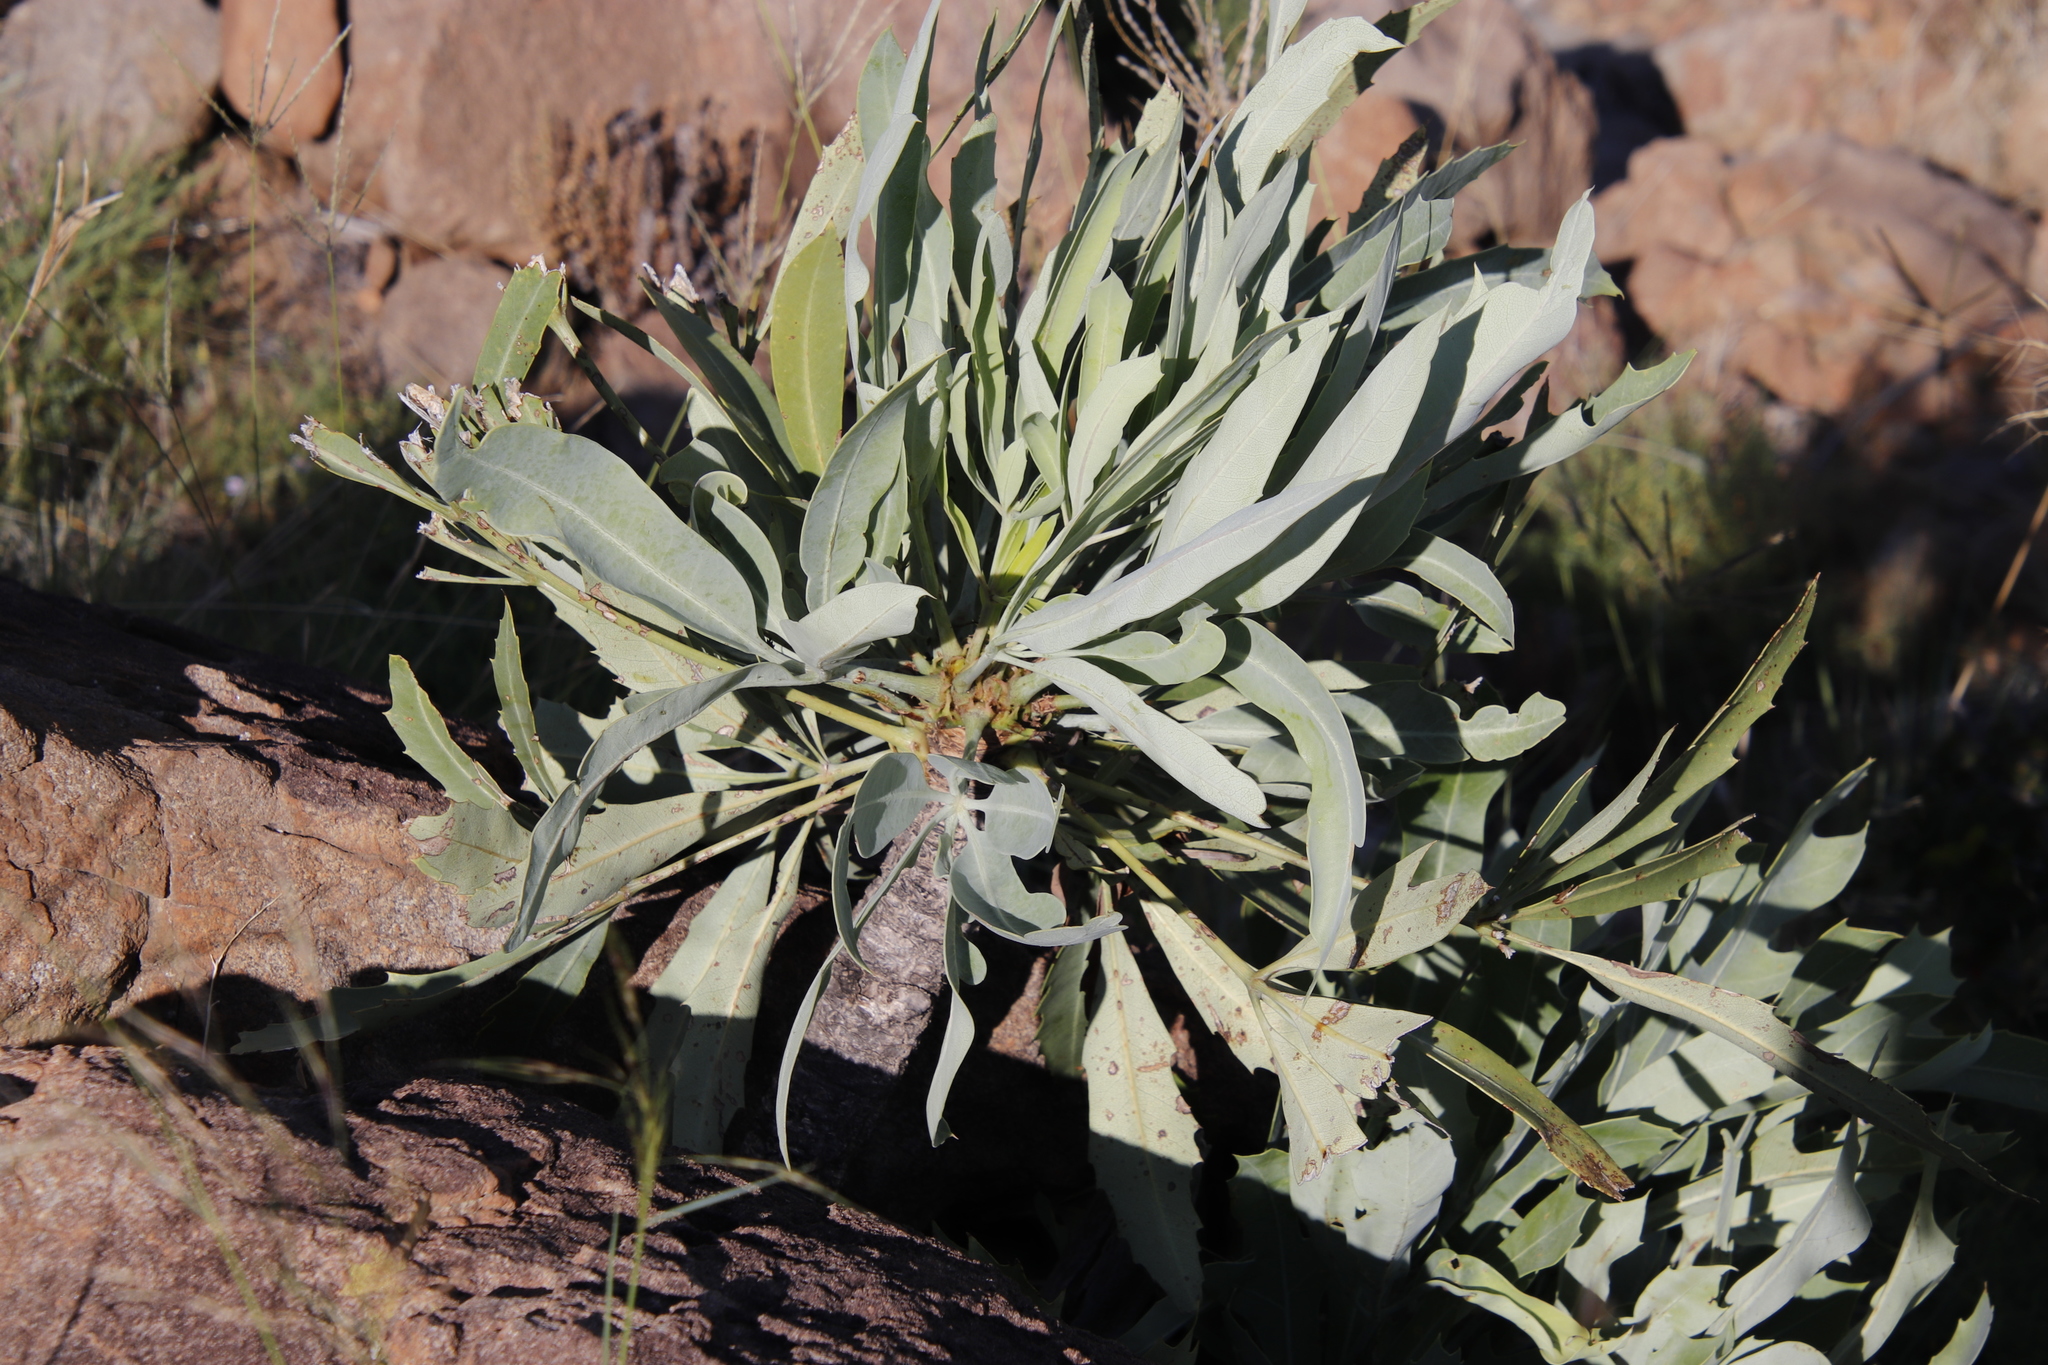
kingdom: Plantae
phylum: Tracheophyta
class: Magnoliopsida
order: Apiales
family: Araliaceae
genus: Cussonia
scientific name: Cussonia paniculata
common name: Cabbagetree
